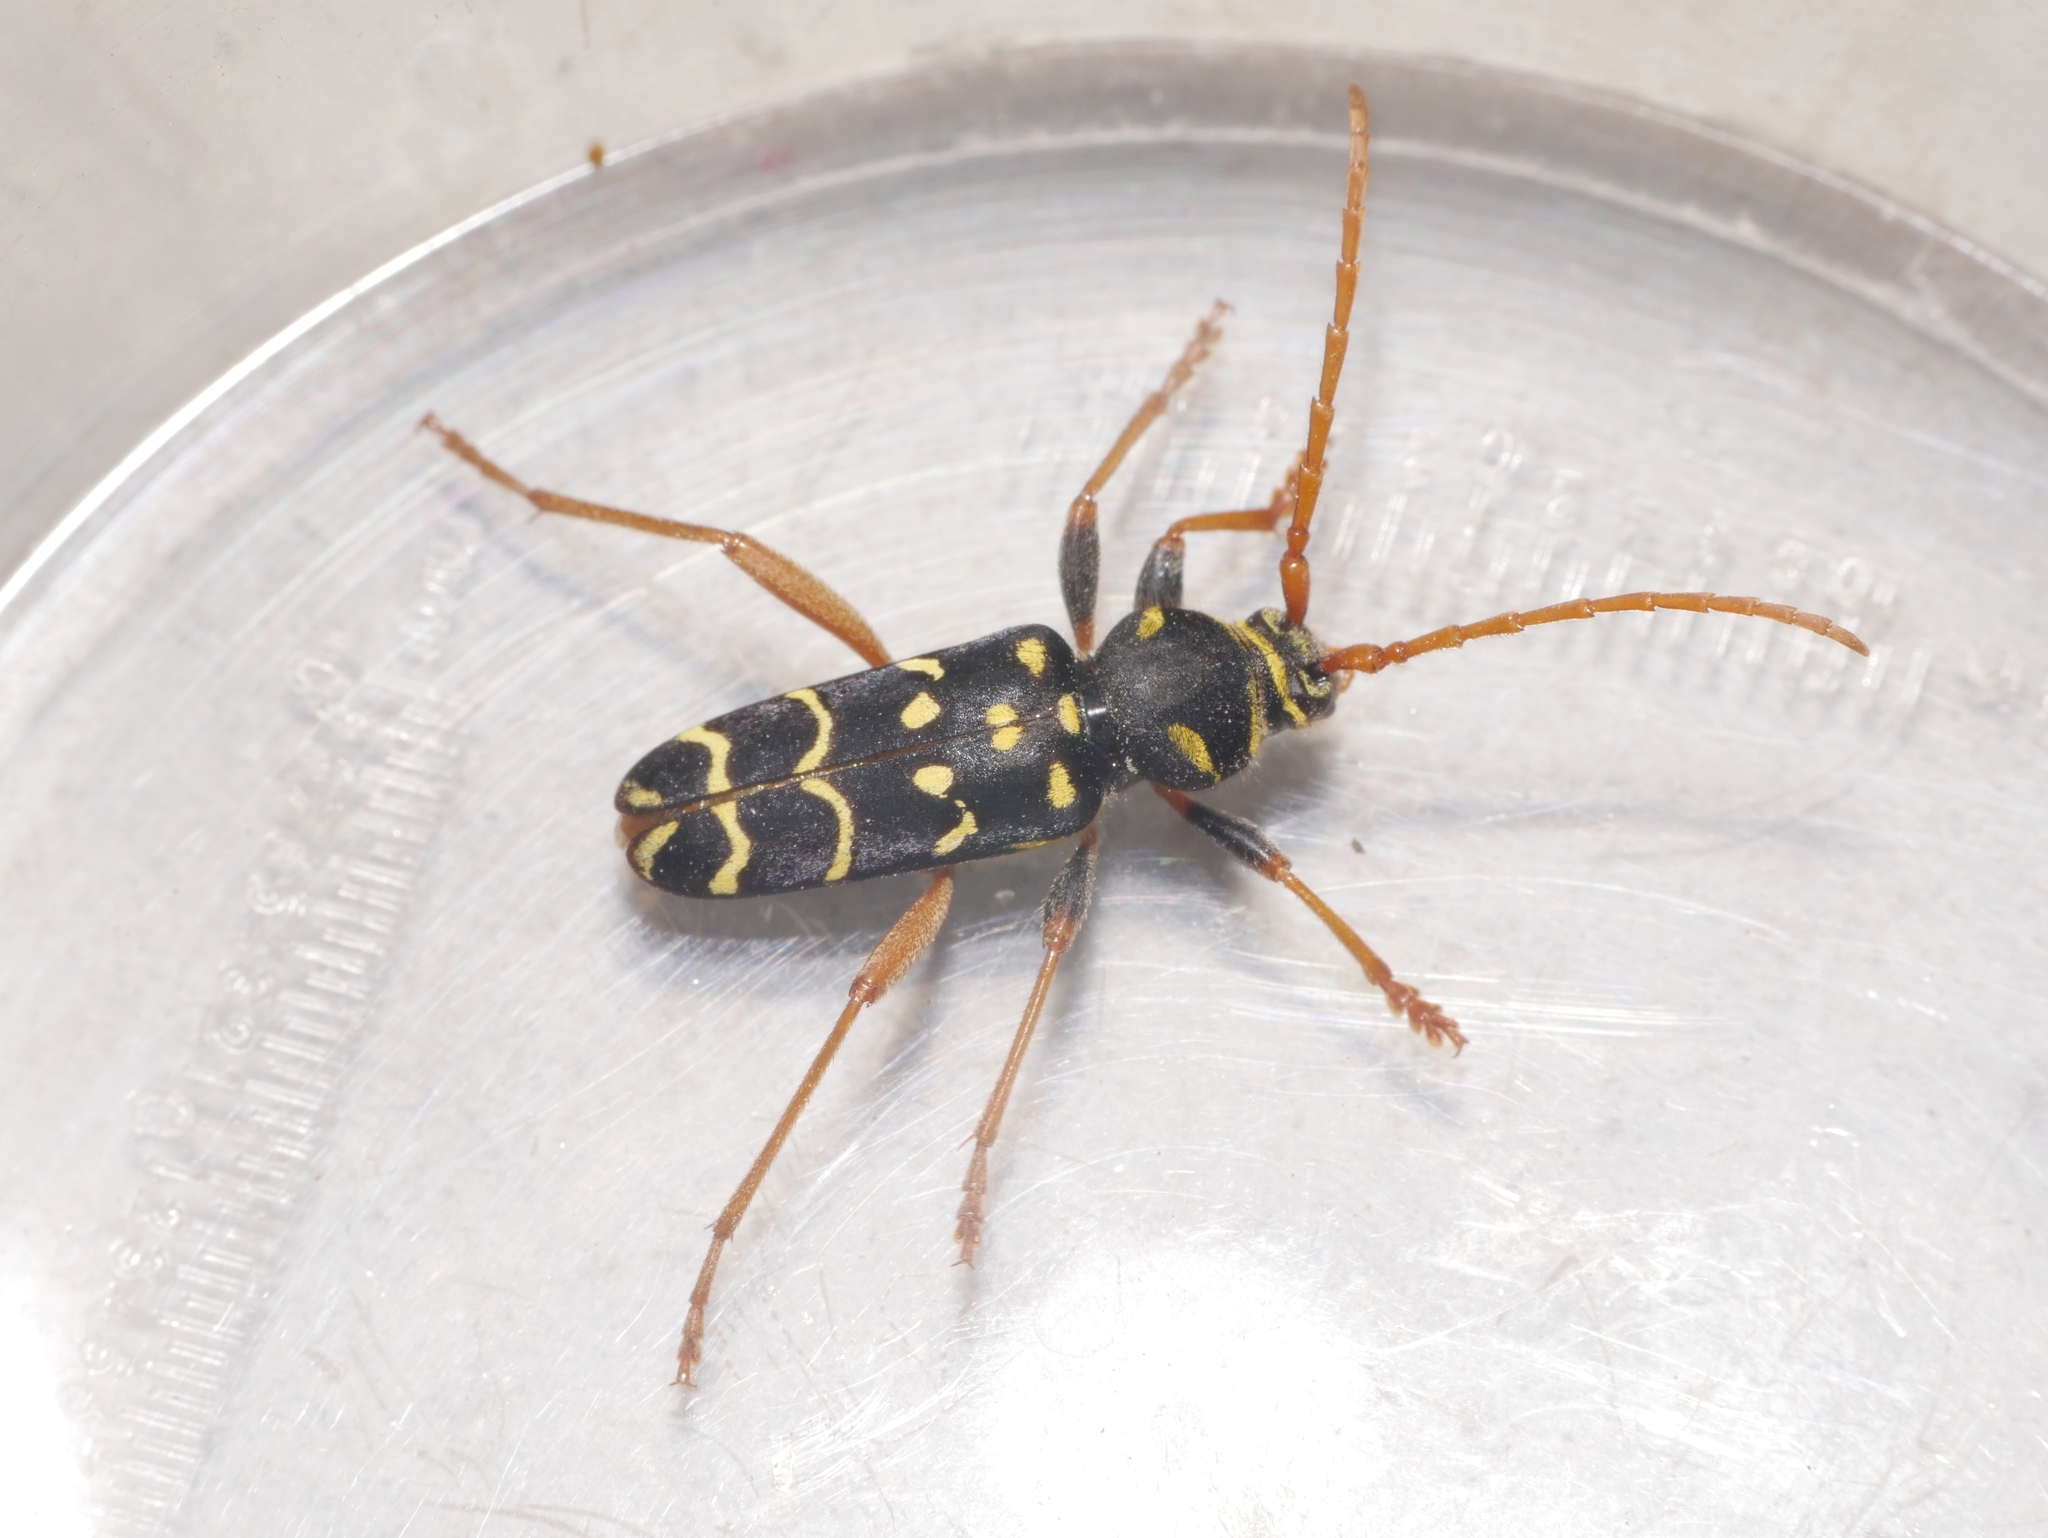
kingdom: Animalia
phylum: Arthropoda
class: Insecta
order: Coleoptera
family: Cerambycidae
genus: Plagionotus
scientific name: Plagionotus arcuatus
